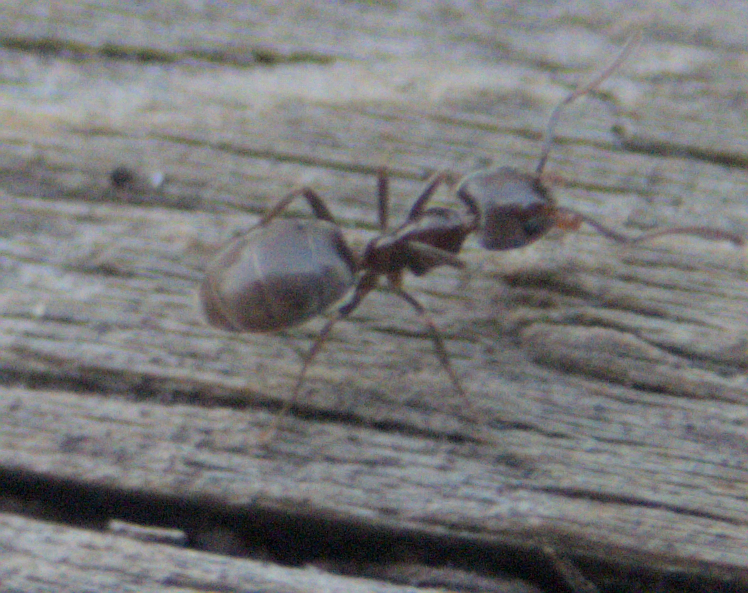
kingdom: Animalia
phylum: Arthropoda
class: Insecta
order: Hymenoptera
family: Formicidae
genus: Liometopum
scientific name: Liometopum luctuosum
